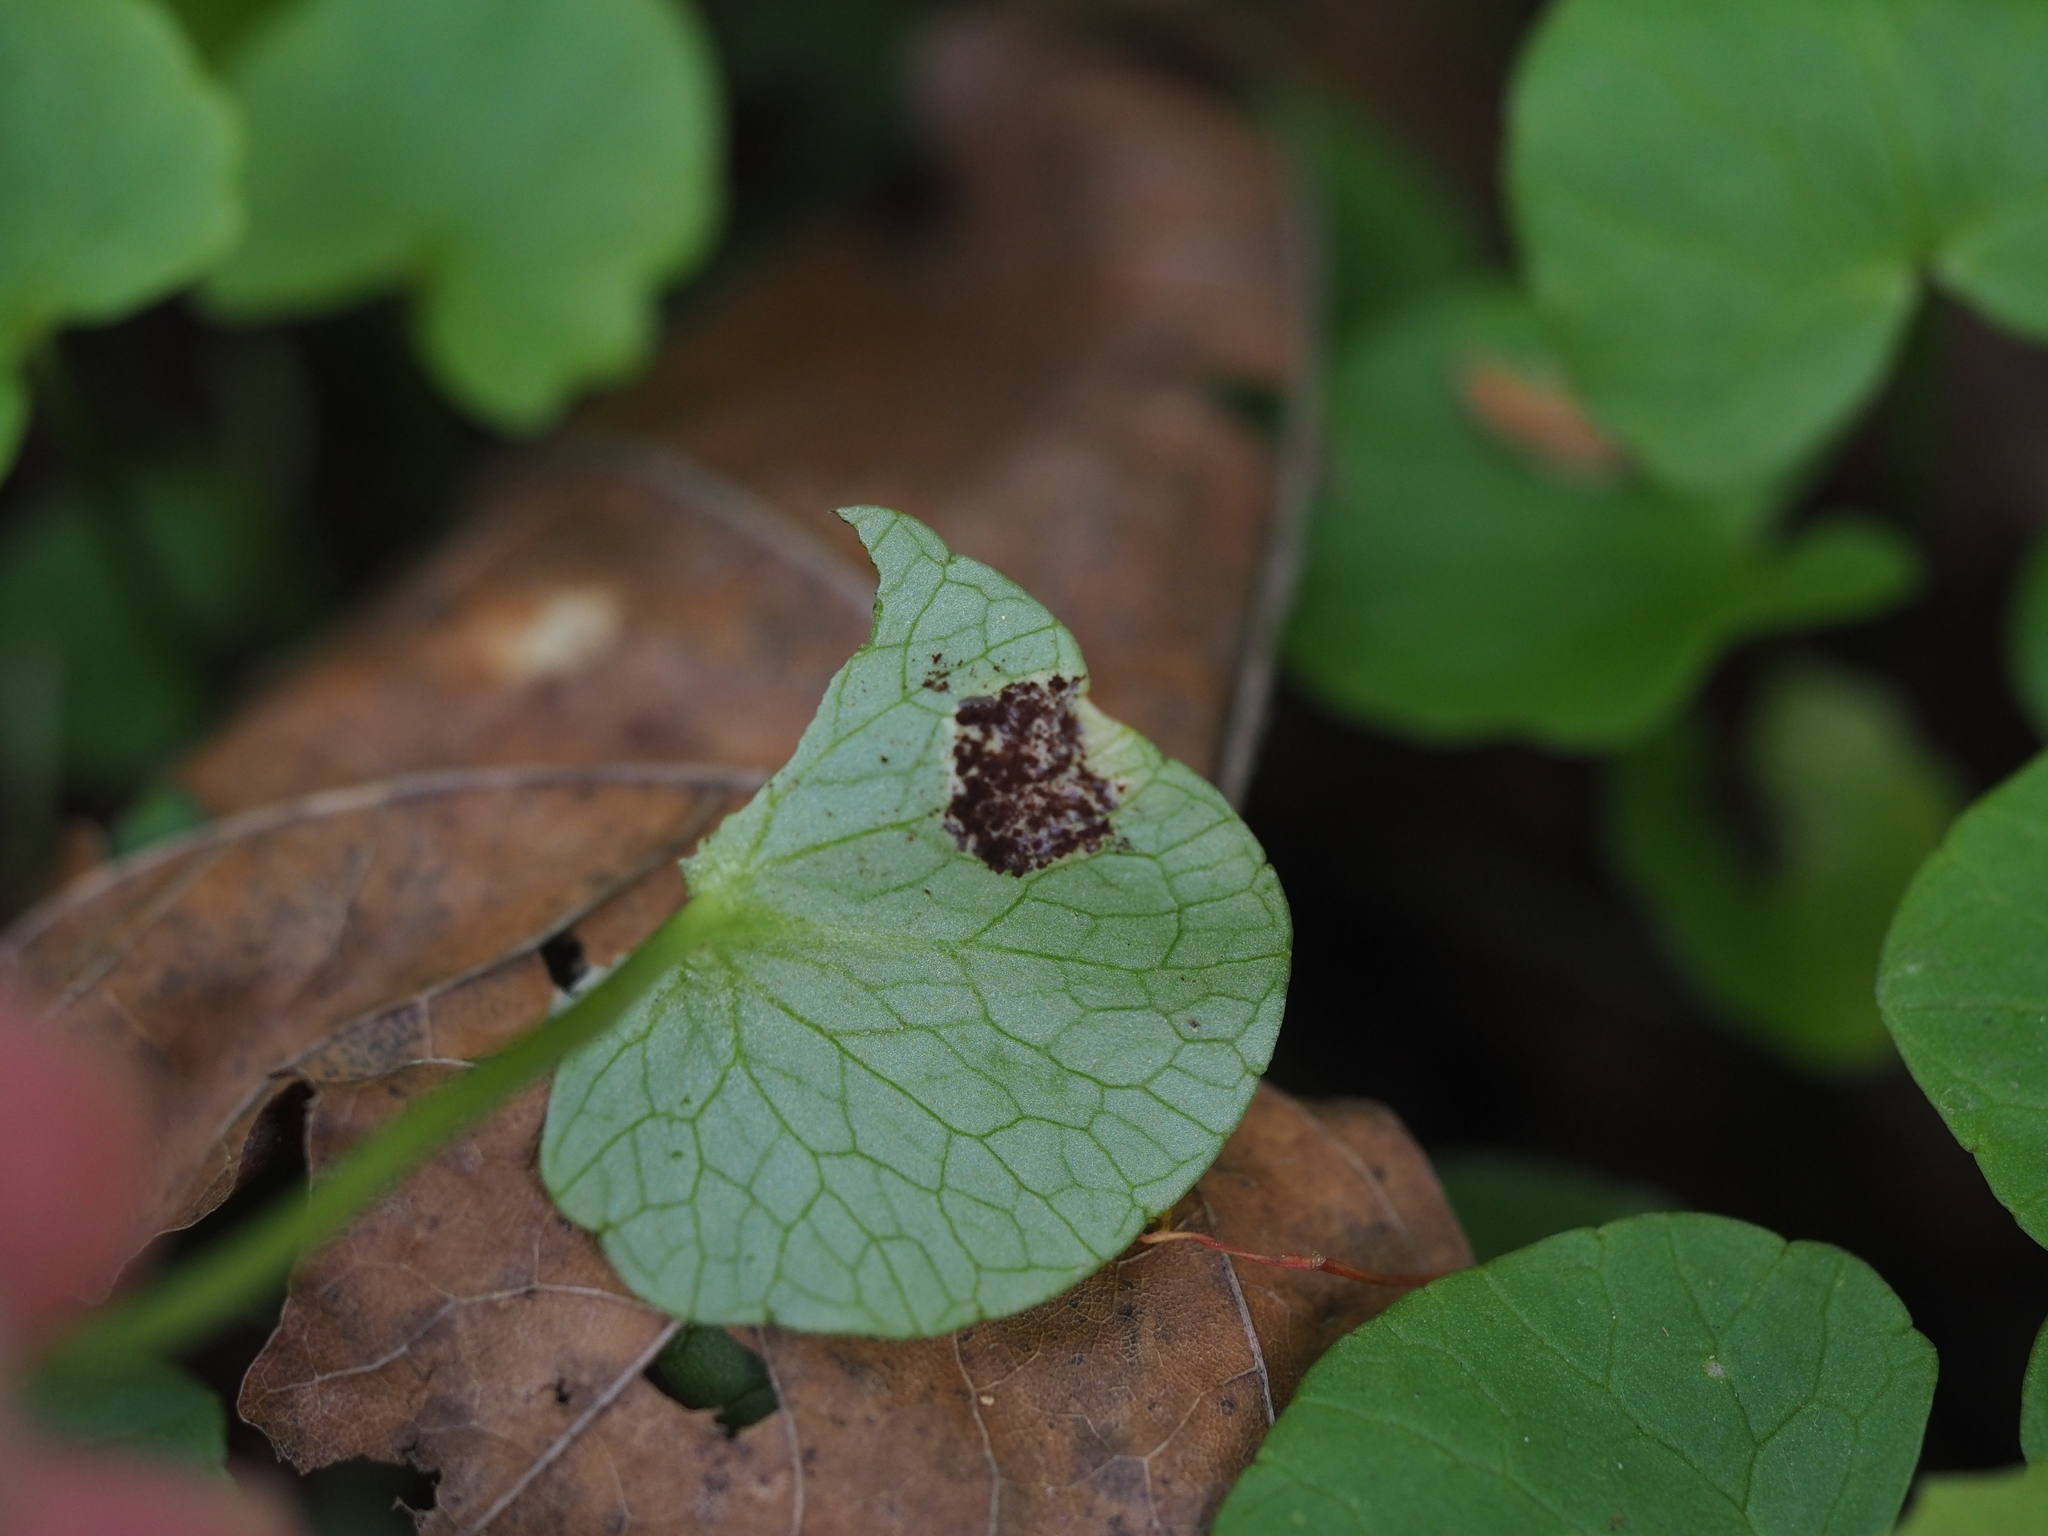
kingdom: Fungi
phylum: Basidiomycota
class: Pucciniomycetes
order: Pucciniales
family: Pucciniaceae
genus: Uromyces
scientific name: Uromyces ficariae
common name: Bitter chocolate rust
